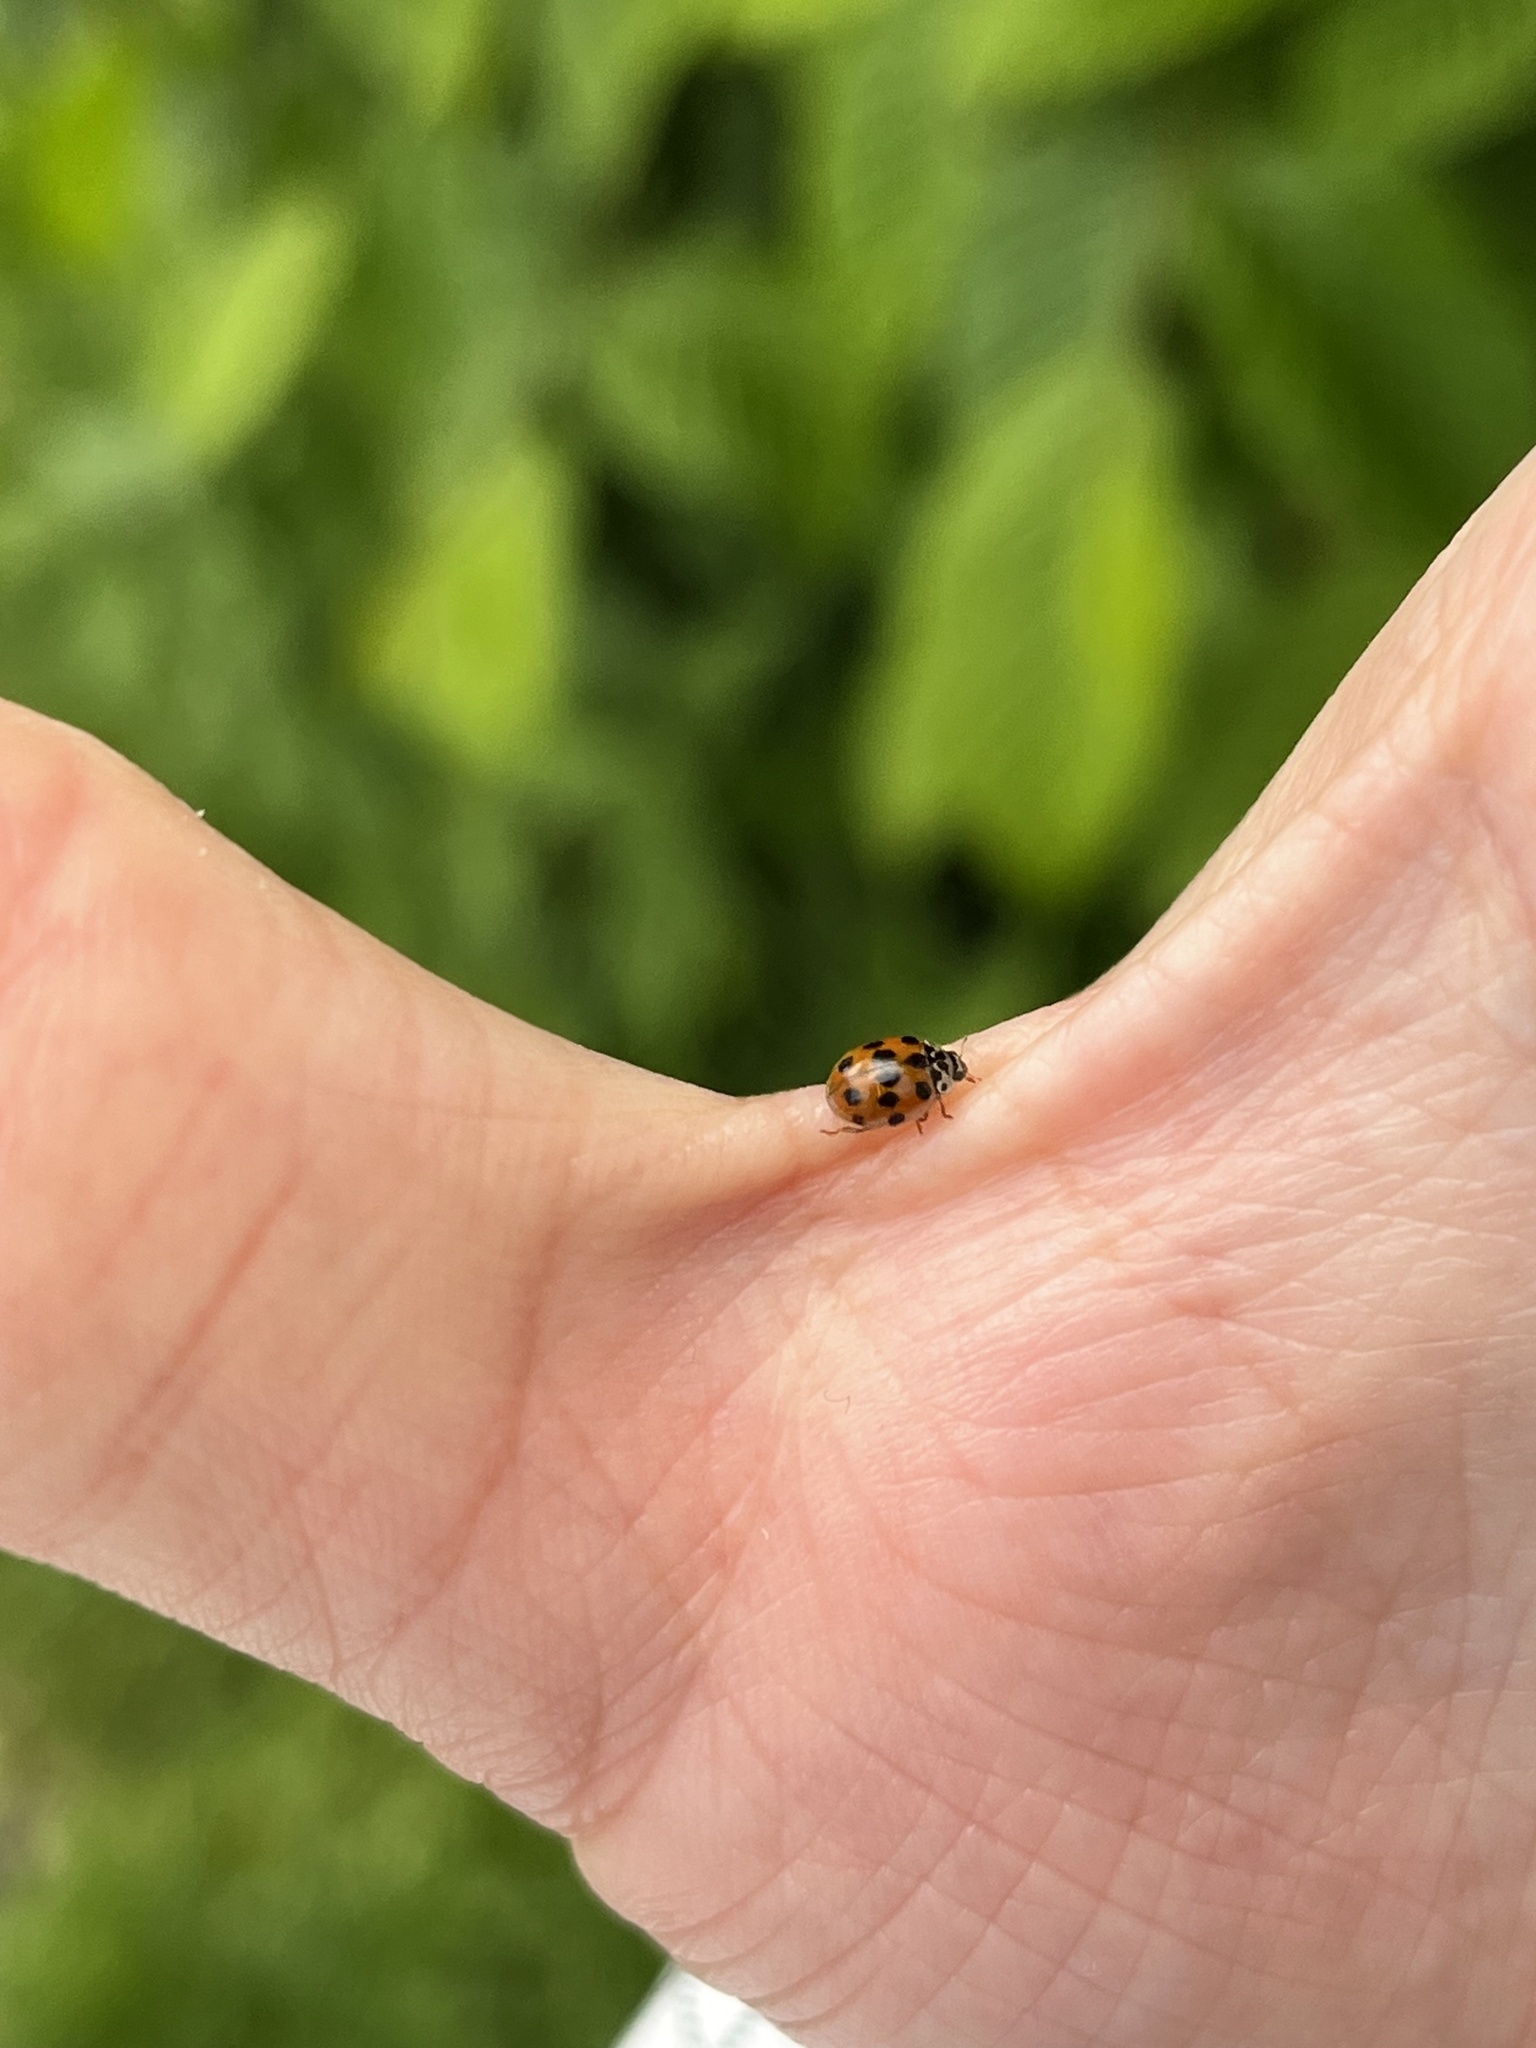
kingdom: Animalia
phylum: Arthropoda
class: Insecta
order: Coleoptera
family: Coccinellidae
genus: Adalia
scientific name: Adalia decempunctata
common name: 10-spot ladybird
